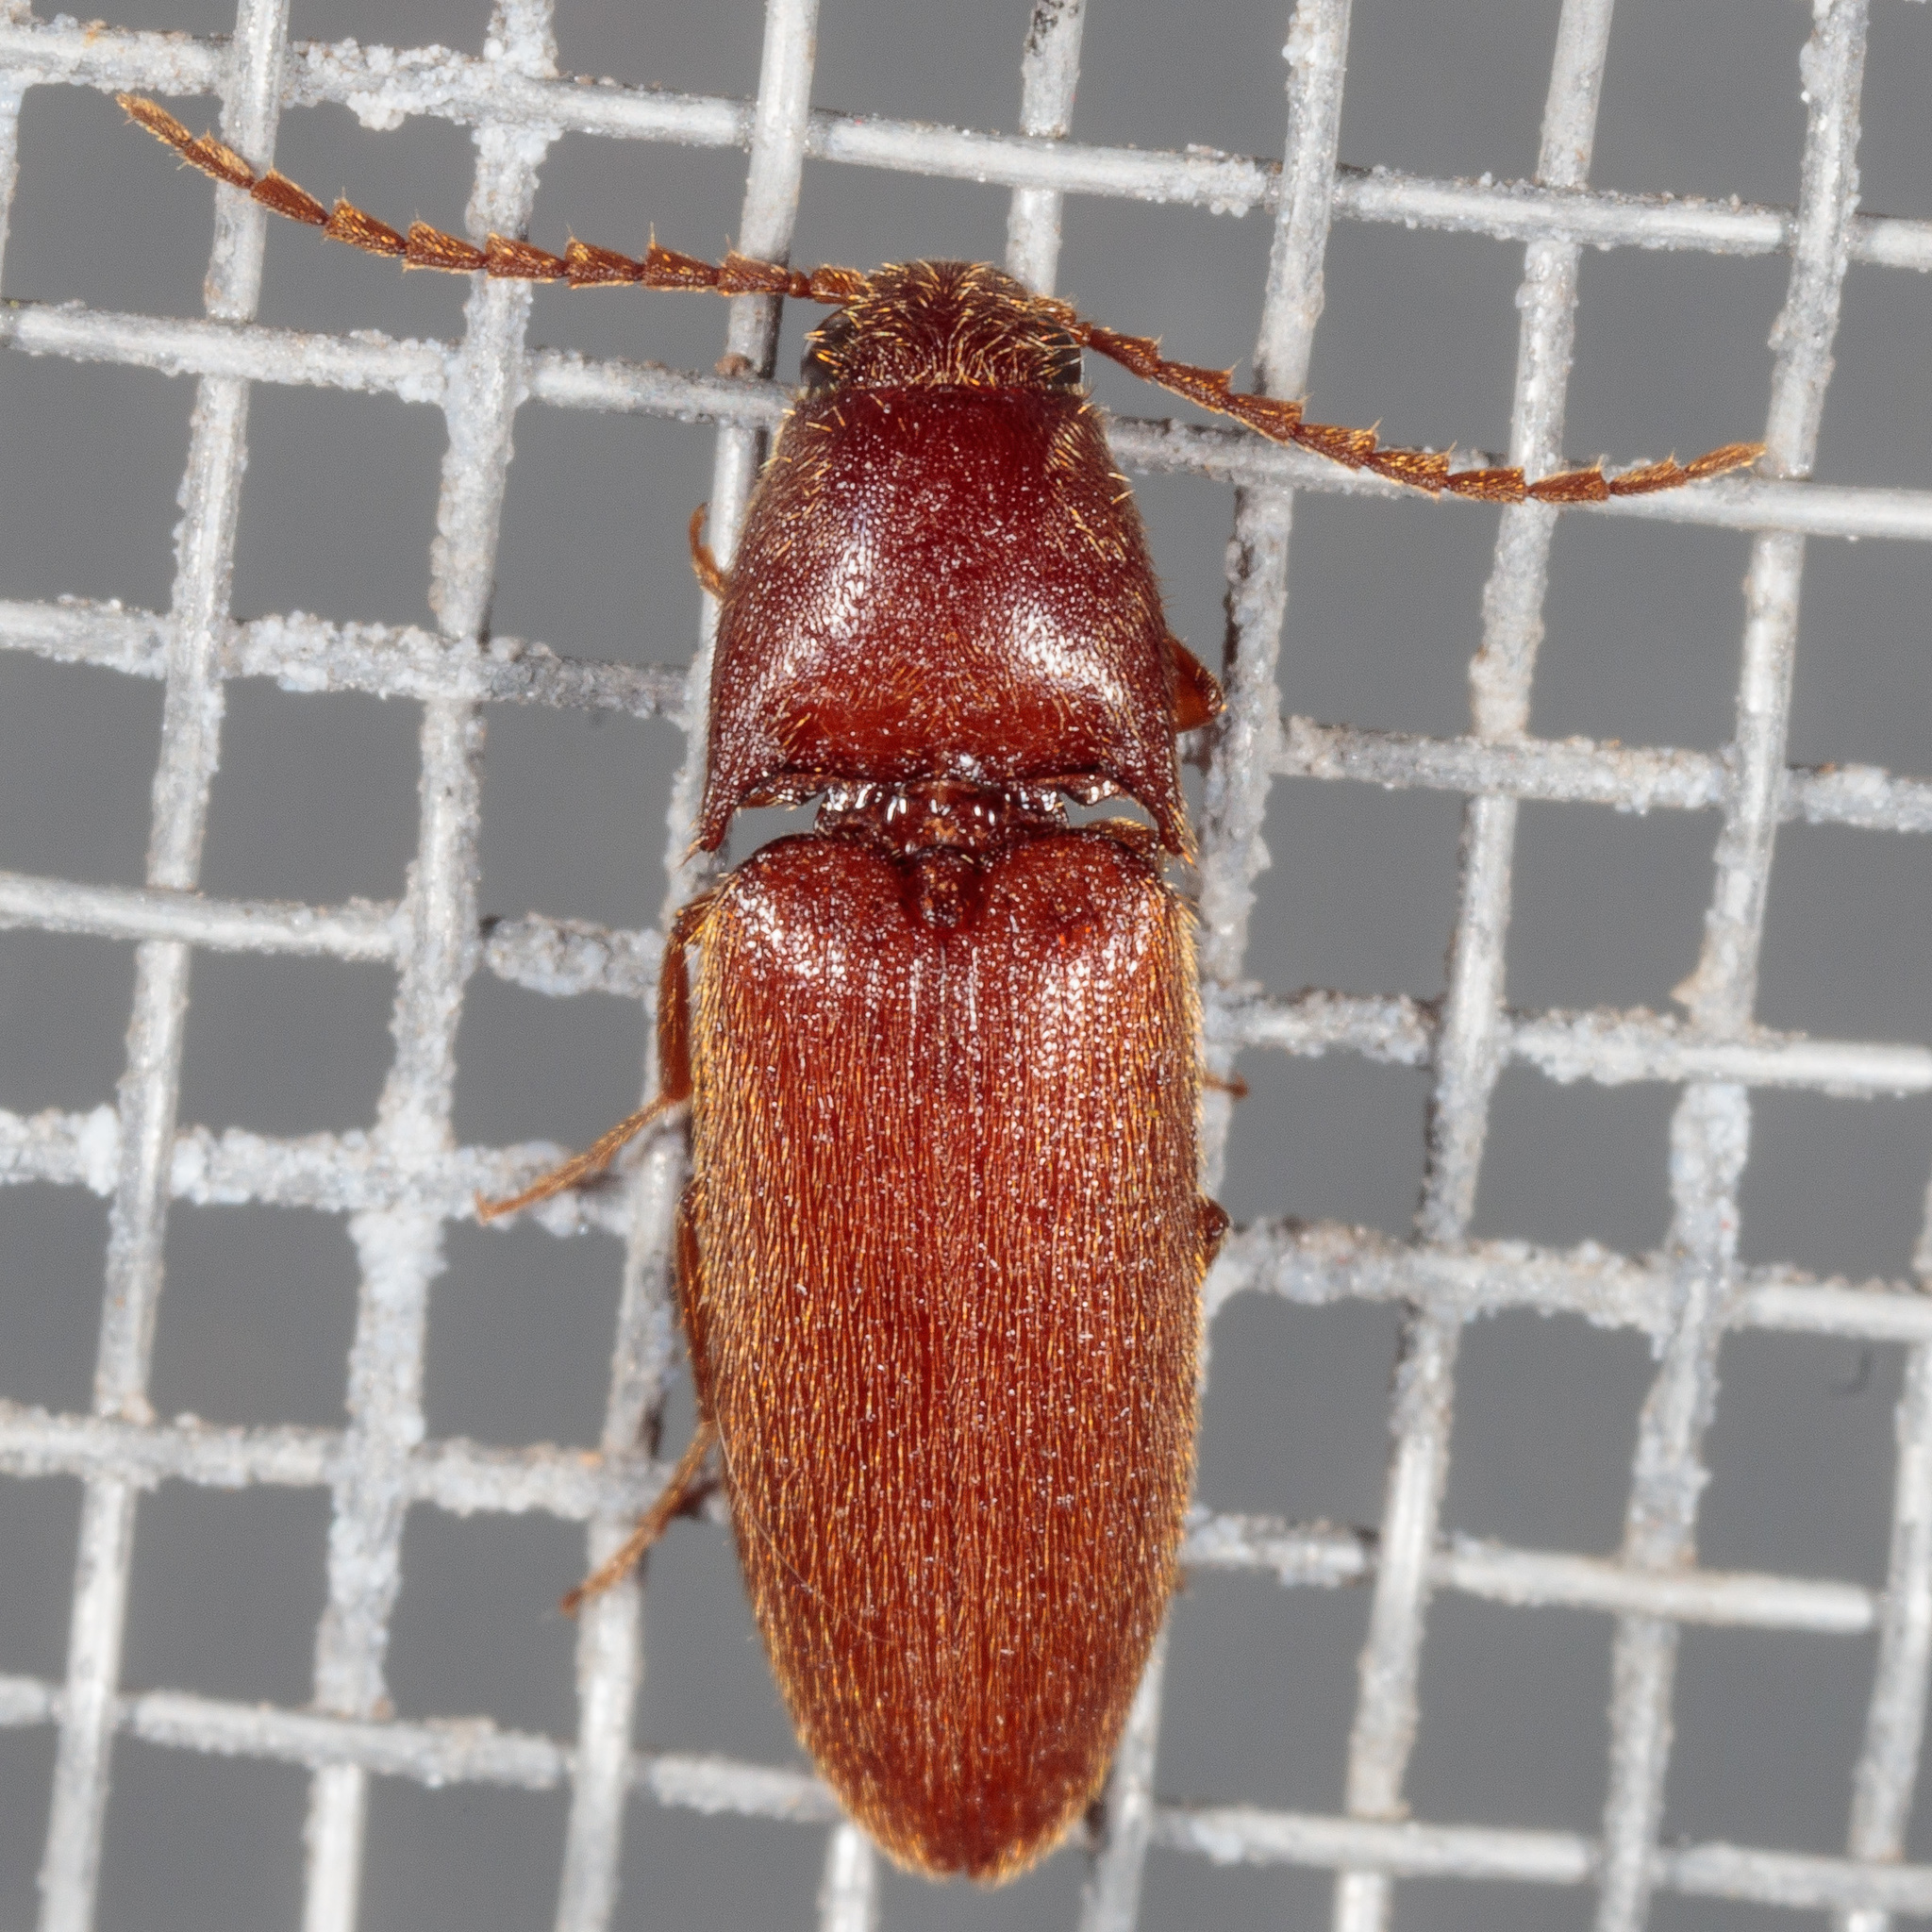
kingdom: Animalia
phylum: Arthropoda
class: Insecta
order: Coleoptera
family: Elateridae
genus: Anchastus
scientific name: Anchastus
